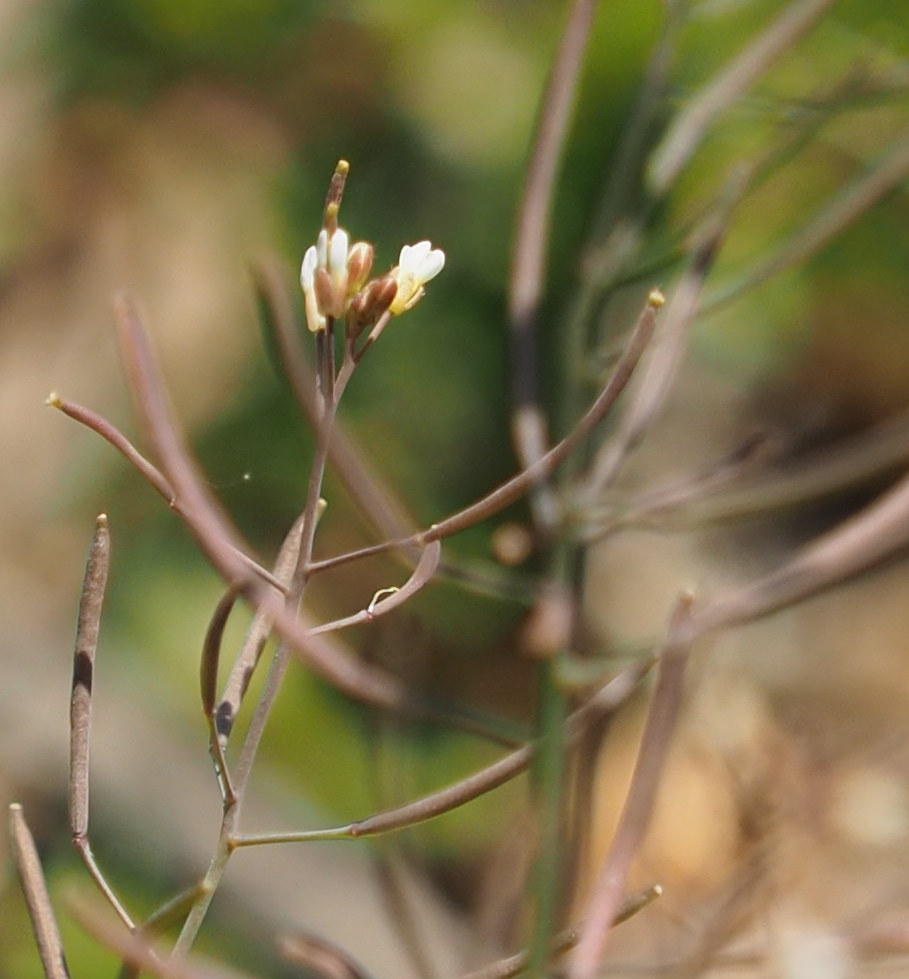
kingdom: Plantae
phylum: Tracheophyta
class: Magnoliopsida
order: Brassicales
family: Brassicaceae
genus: Draba
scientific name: Draba verna
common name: Spring draba
